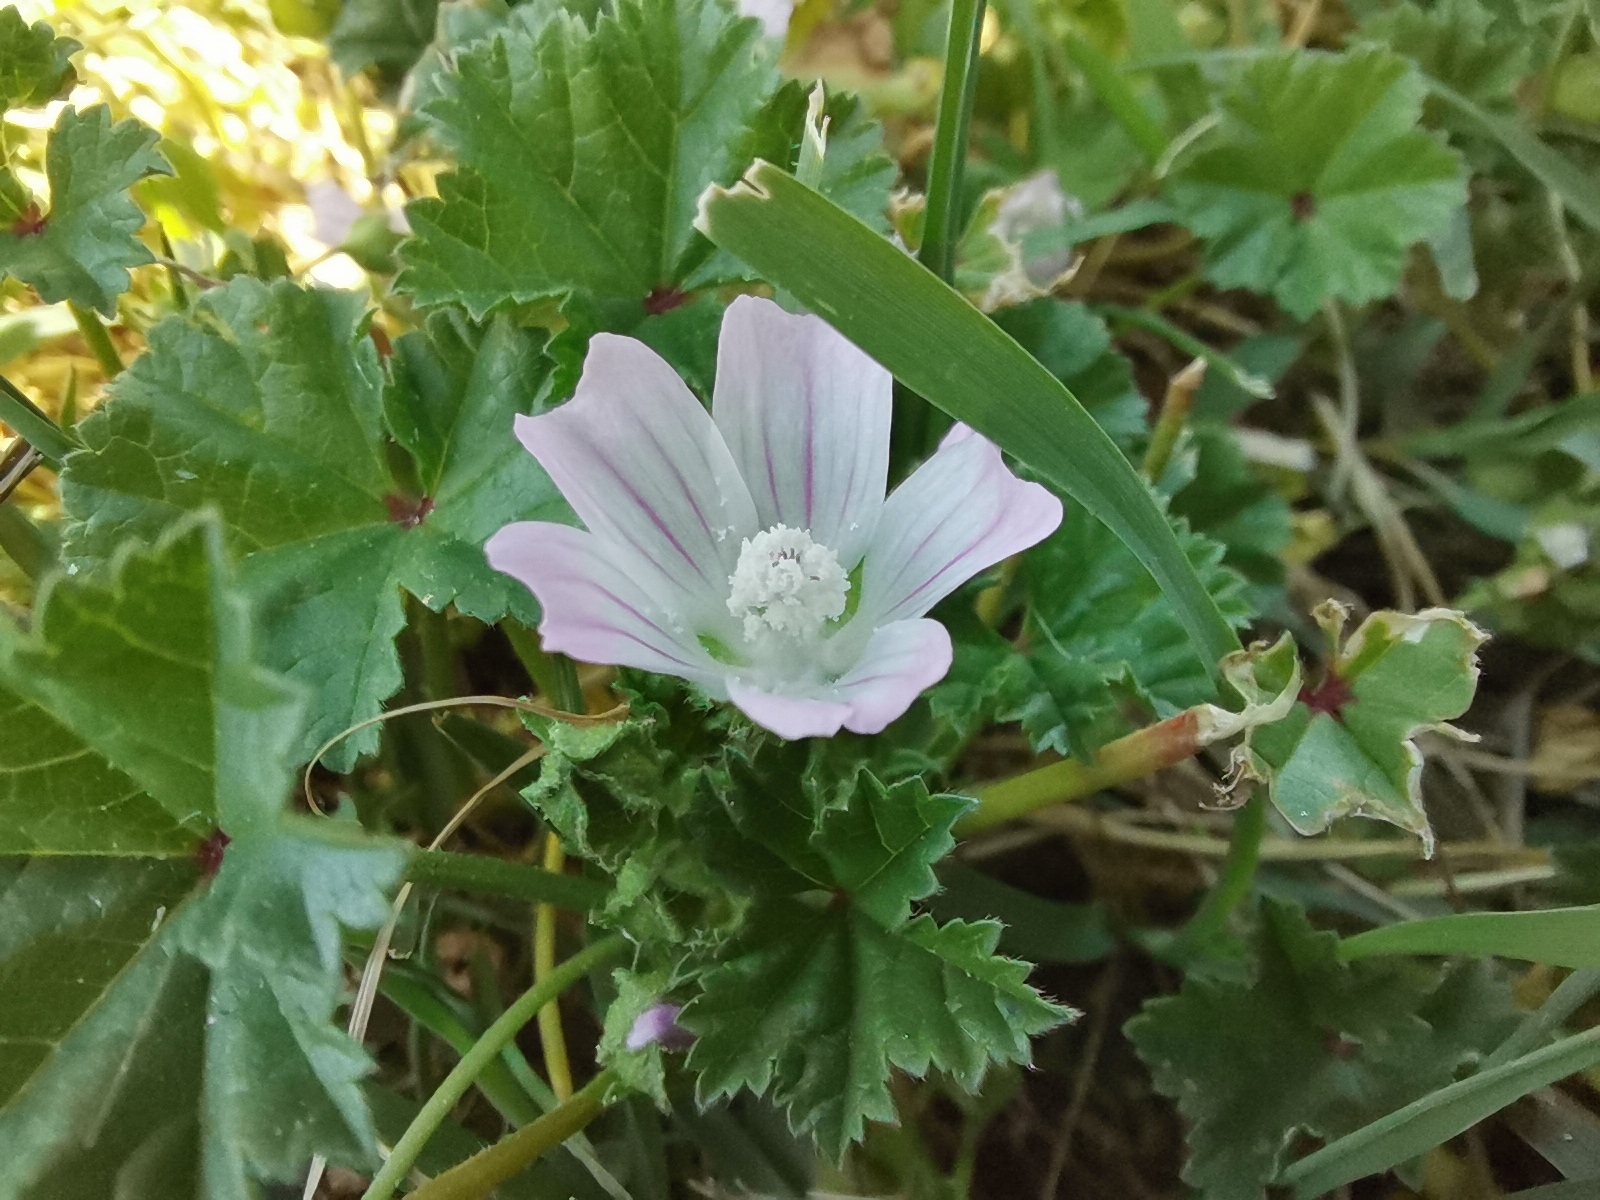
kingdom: Plantae
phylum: Tracheophyta
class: Magnoliopsida
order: Malvales
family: Malvaceae
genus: Malva
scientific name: Malva neglecta
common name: Common mallow
